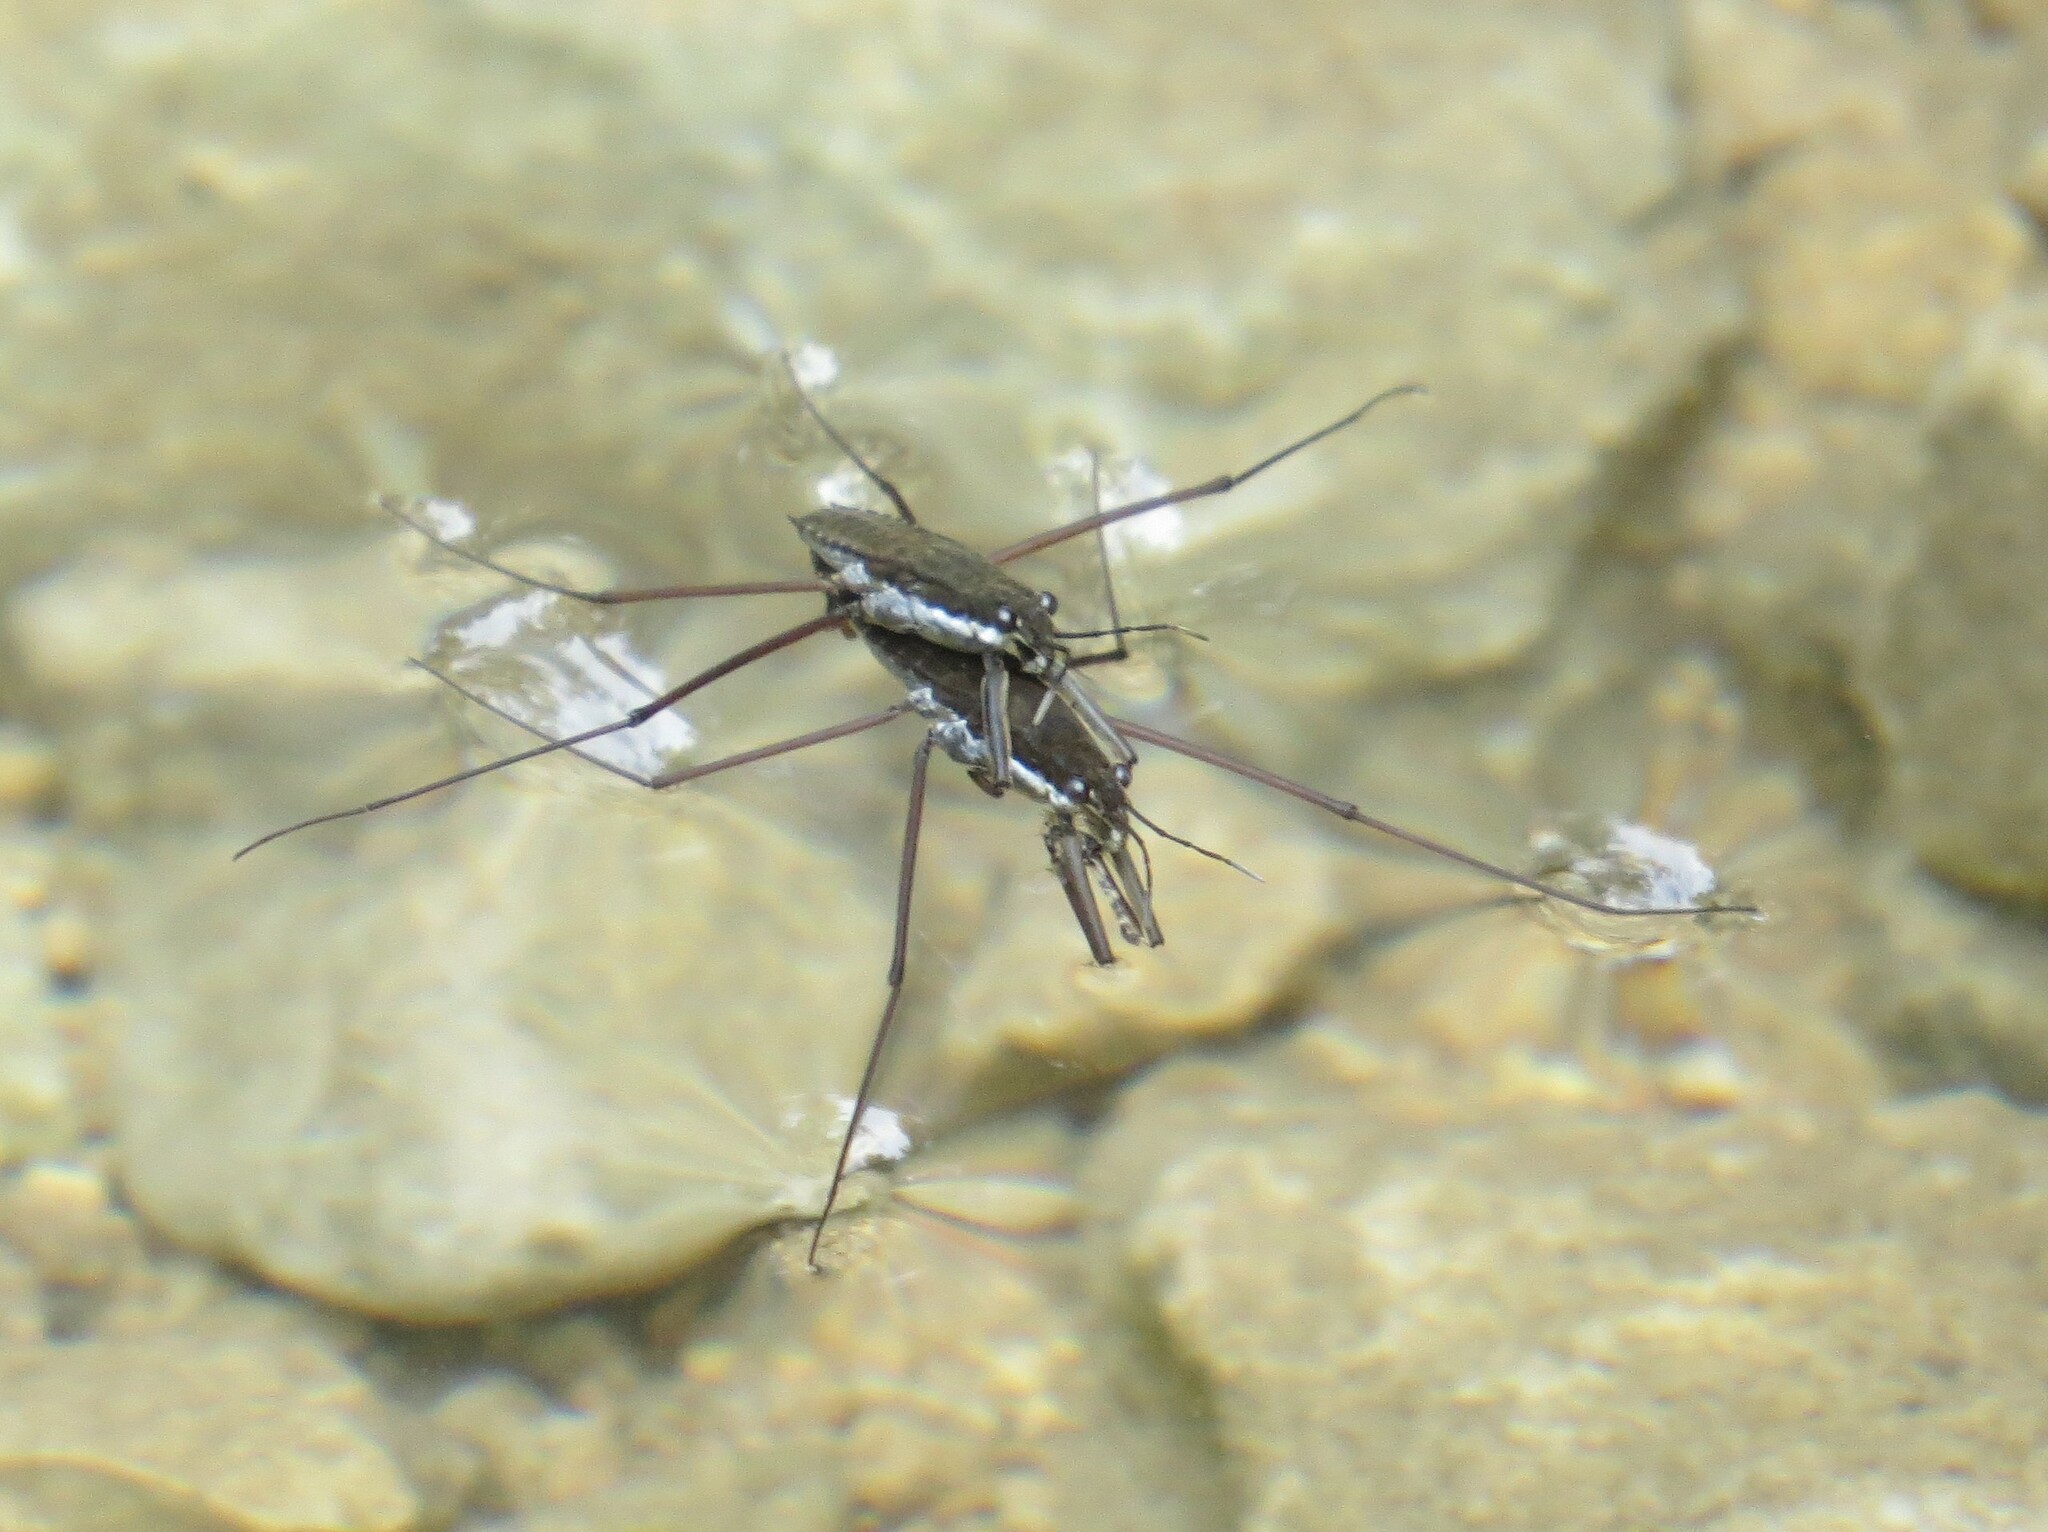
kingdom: Animalia
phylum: Arthropoda
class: Insecta
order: Hemiptera
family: Gerridae
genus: Aquarius
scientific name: Aquarius remigis
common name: Common water strider
